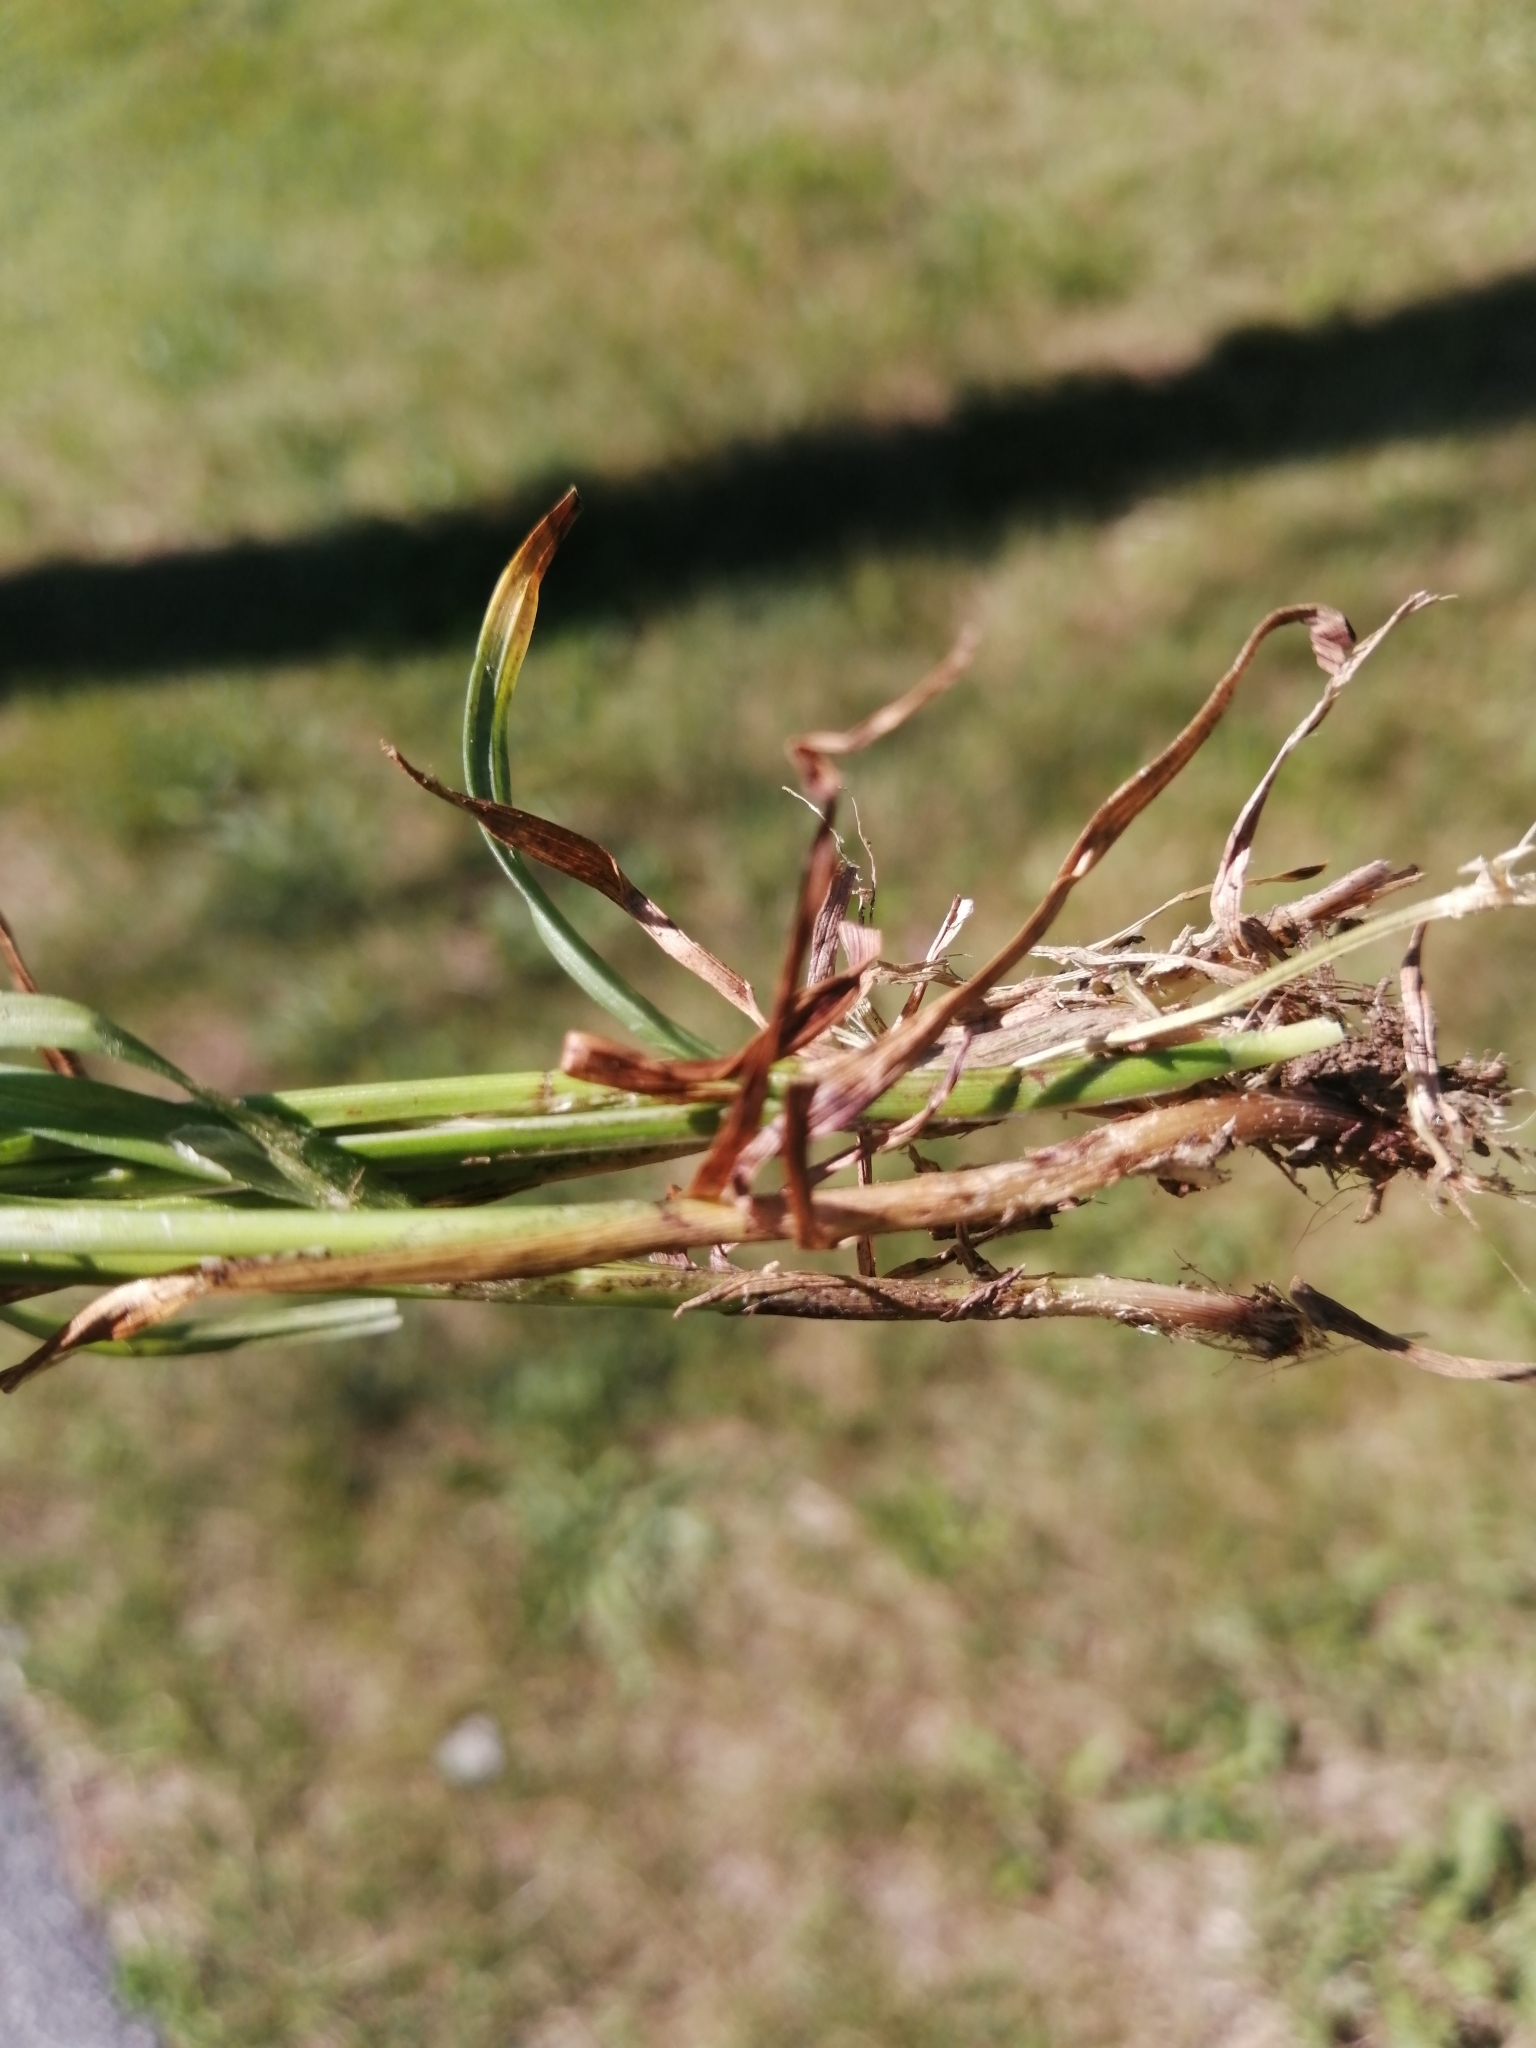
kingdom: Plantae
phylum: Tracheophyta
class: Liliopsida
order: Poales
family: Cyperaceae
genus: Carex
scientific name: Carex spicata
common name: Spiked sedge
